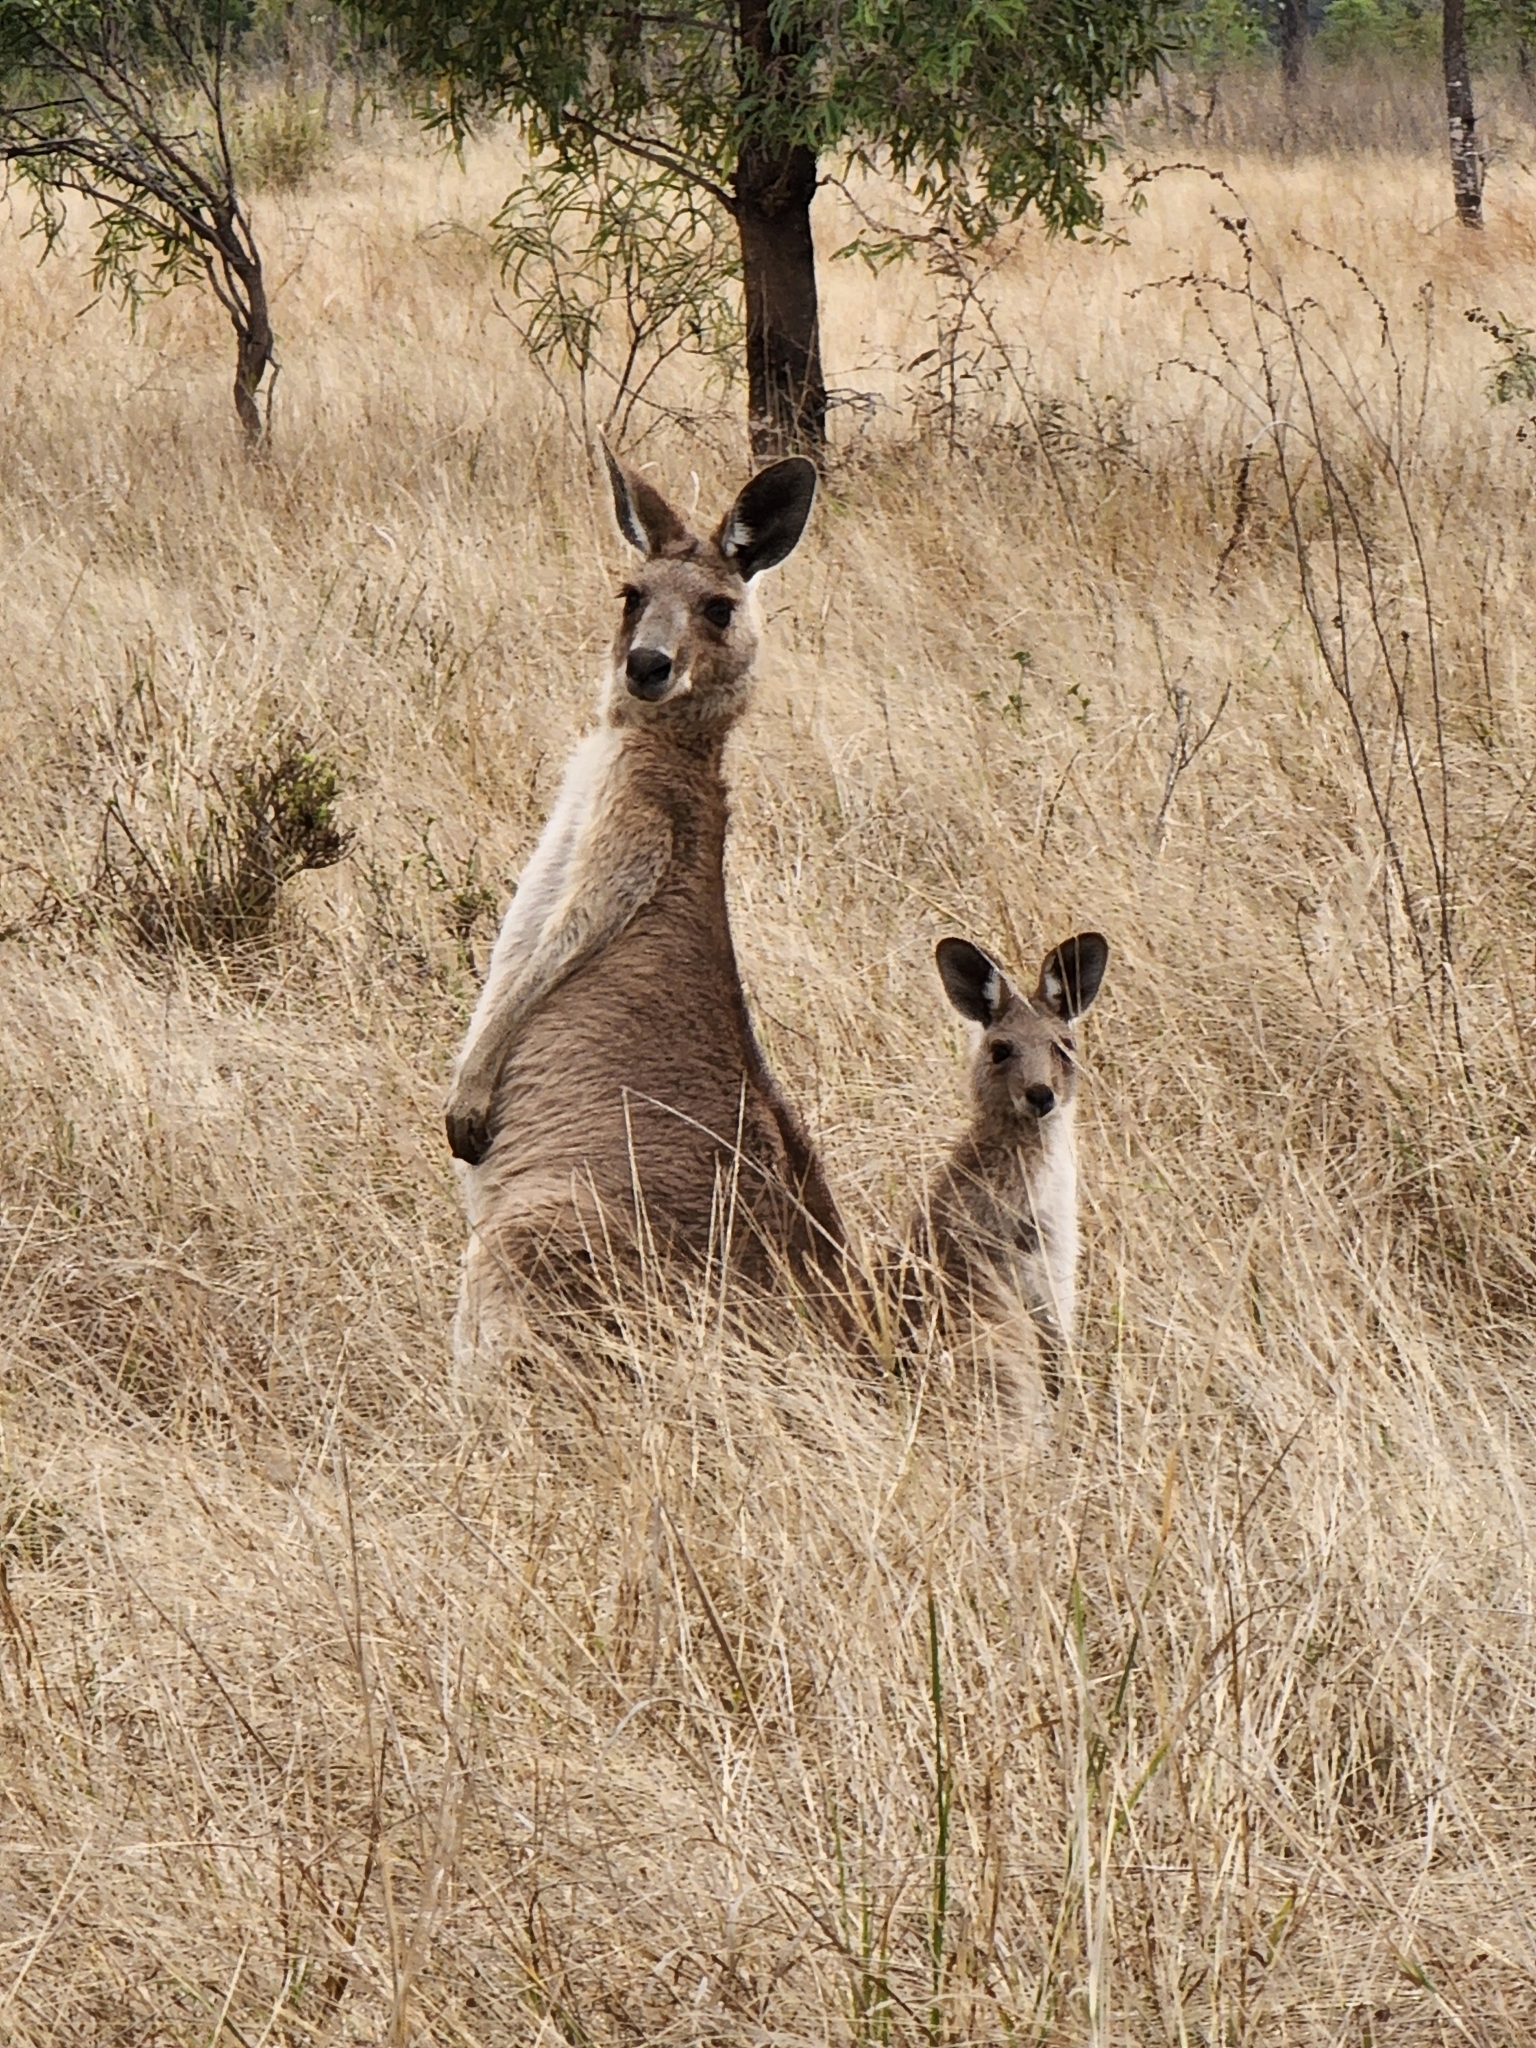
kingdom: Animalia
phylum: Chordata
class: Mammalia
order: Diprotodontia
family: Macropodidae
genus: Macropus
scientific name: Macropus giganteus
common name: Eastern grey kangaroo
